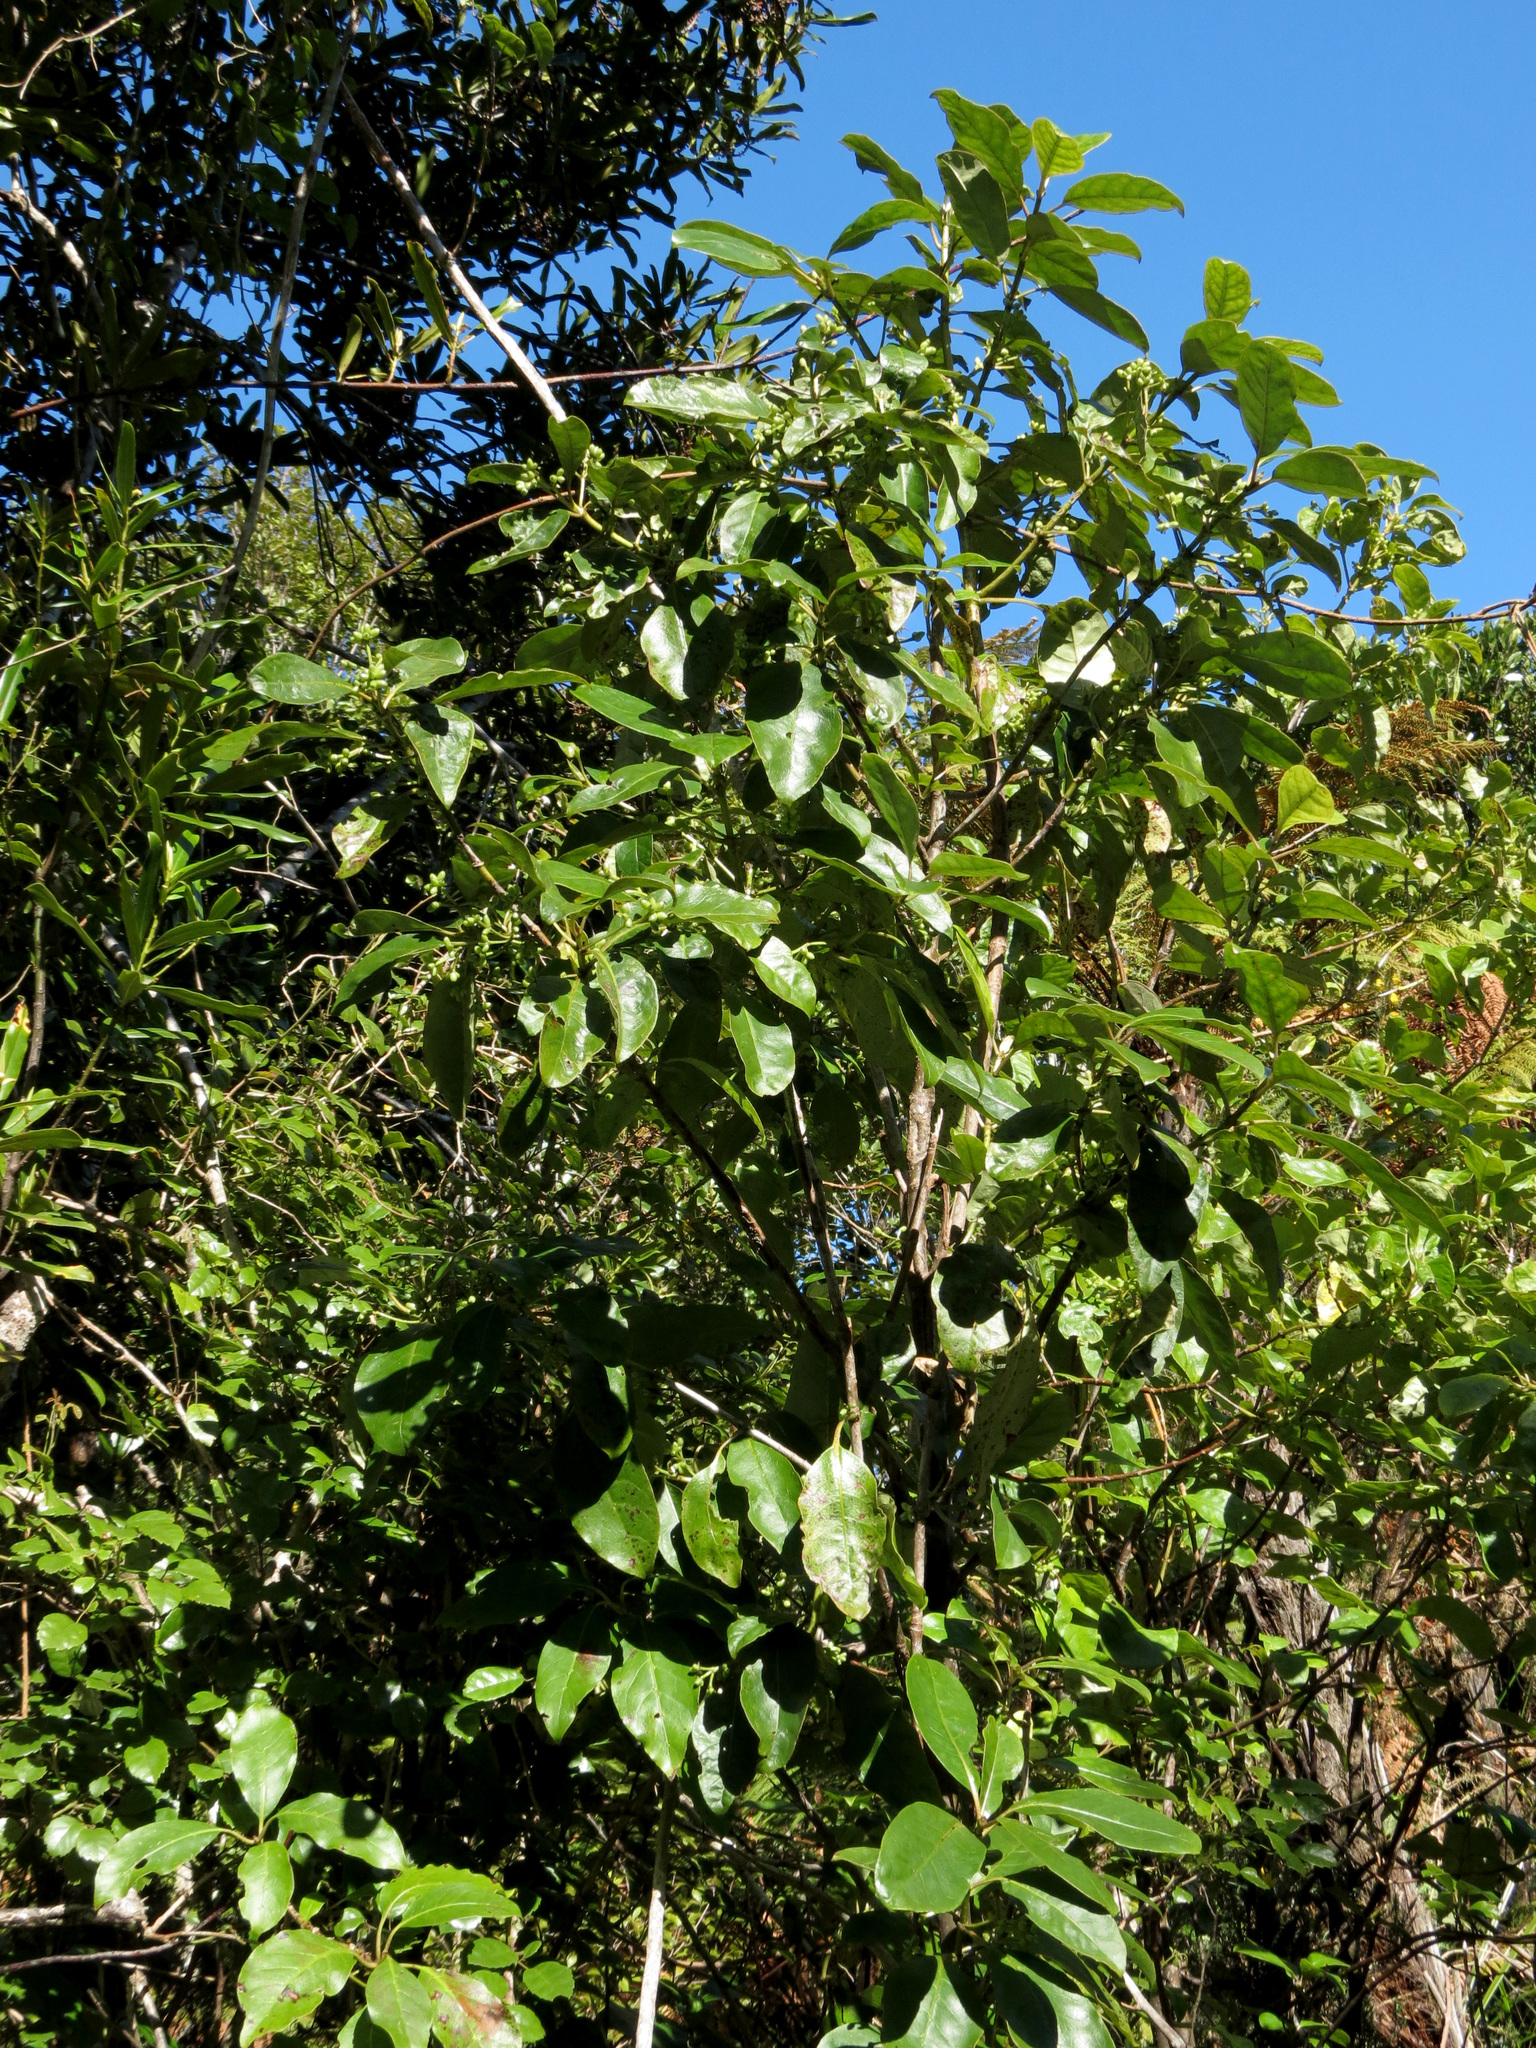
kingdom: Plantae
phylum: Tracheophyta
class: Magnoliopsida
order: Gentianales
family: Rubiaceae
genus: Coprosma
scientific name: Coprosma autumnalis
